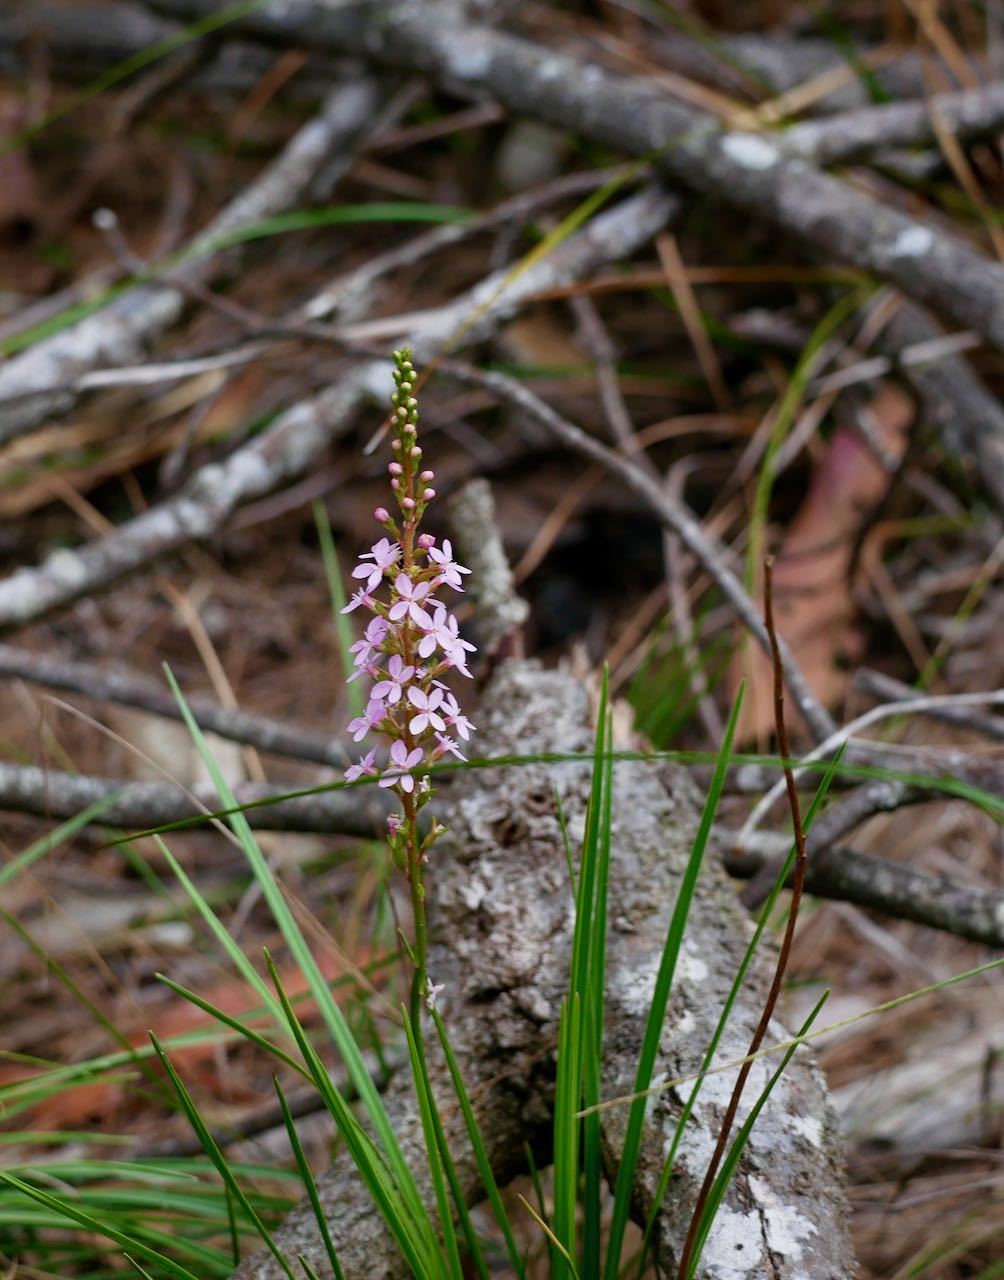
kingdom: Plantae
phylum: Tracheophyta
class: Magnoliopsida
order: Asterales
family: Stylidiaceae
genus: Stylidium
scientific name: Stylidium graminifolium
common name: Grass triggerplant
